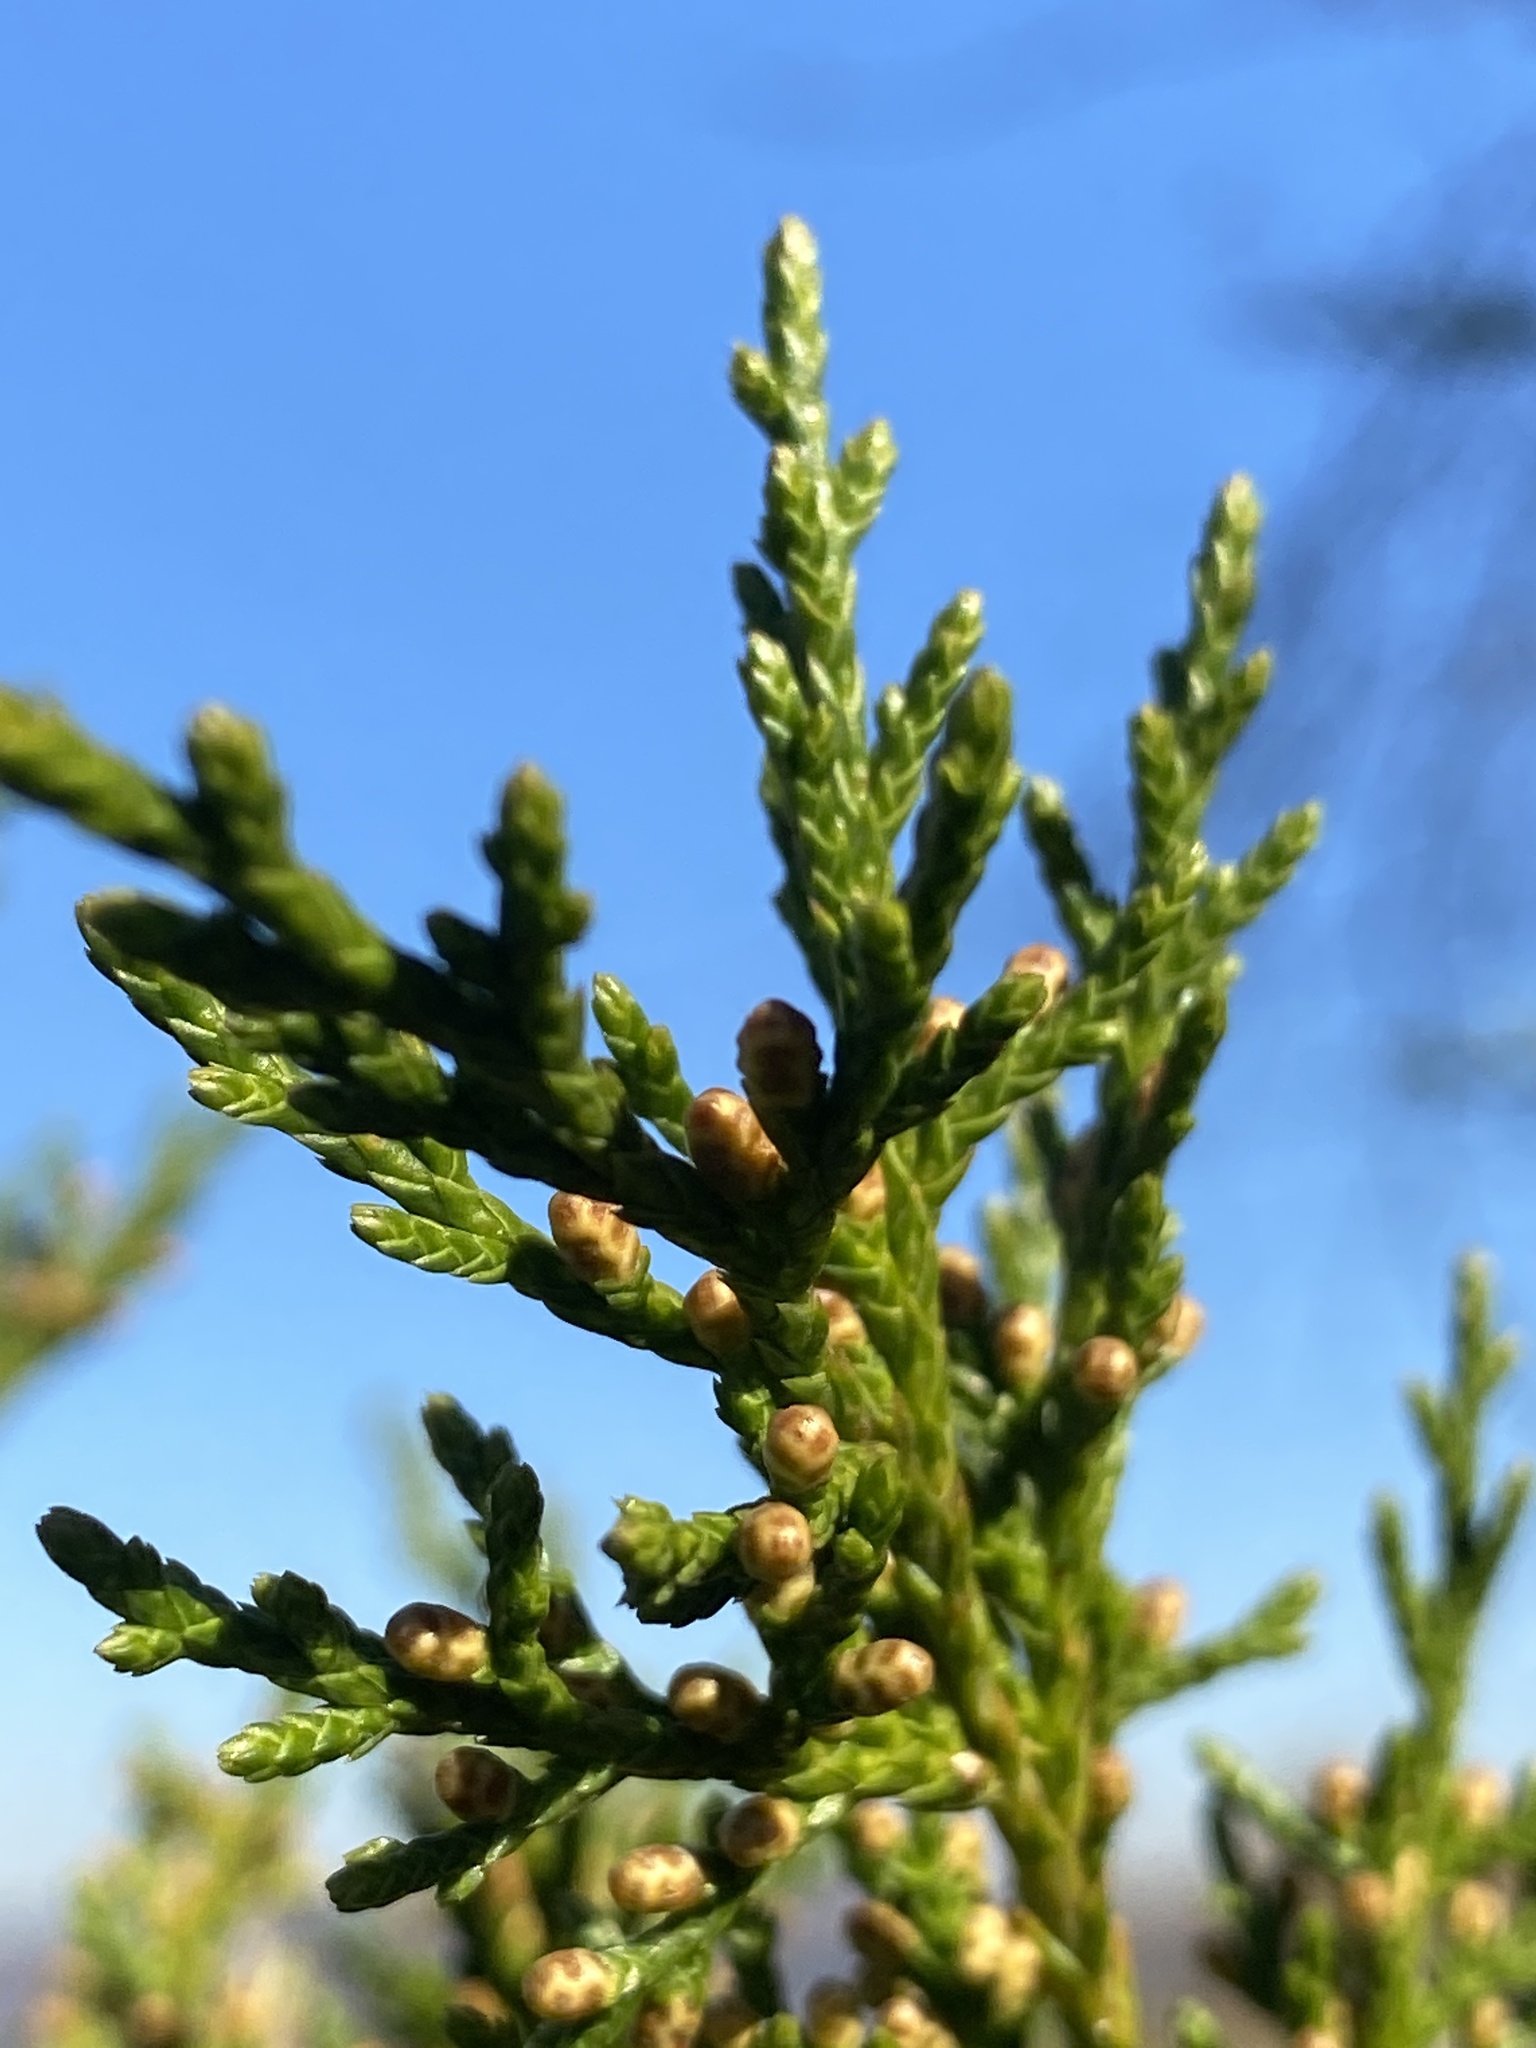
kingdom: Plantae
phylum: Tracheophyta
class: Pinopsida
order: Pinales
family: Cupressaceae
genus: Juniperus
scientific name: Juniperus virginiana
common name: Red juniper
